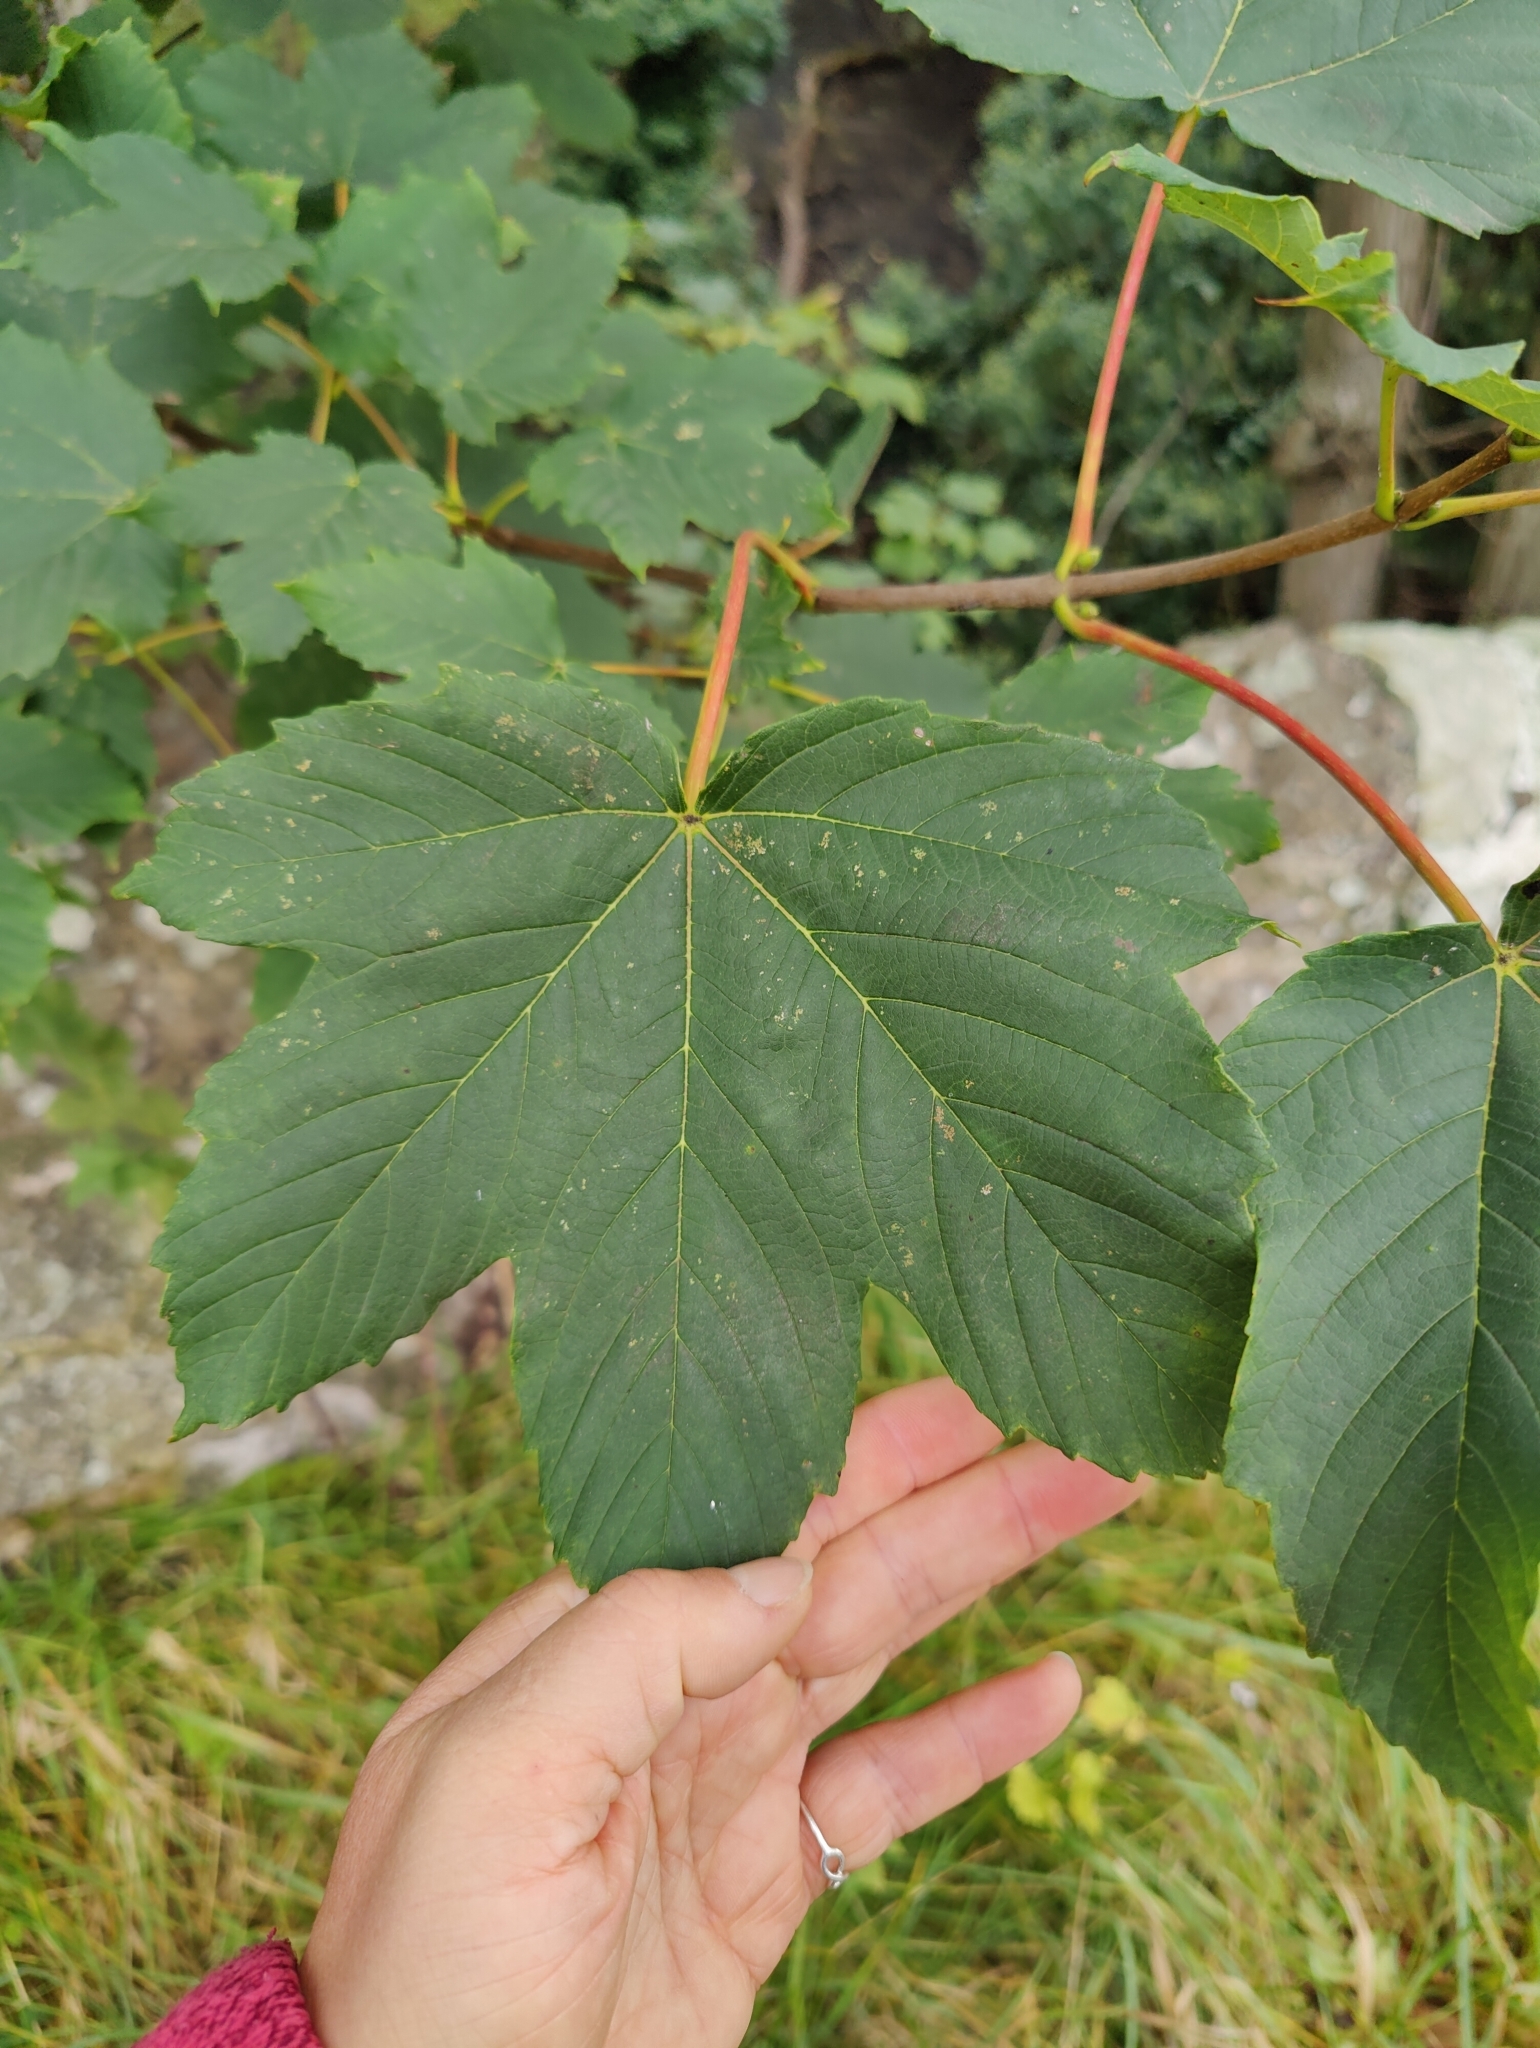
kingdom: Plantae
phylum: Tracheophyta
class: Magnoliopsida
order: Sapindales
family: Sapindaceae
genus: Acer
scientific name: Acer pseudoplatanus
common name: Sycamore
